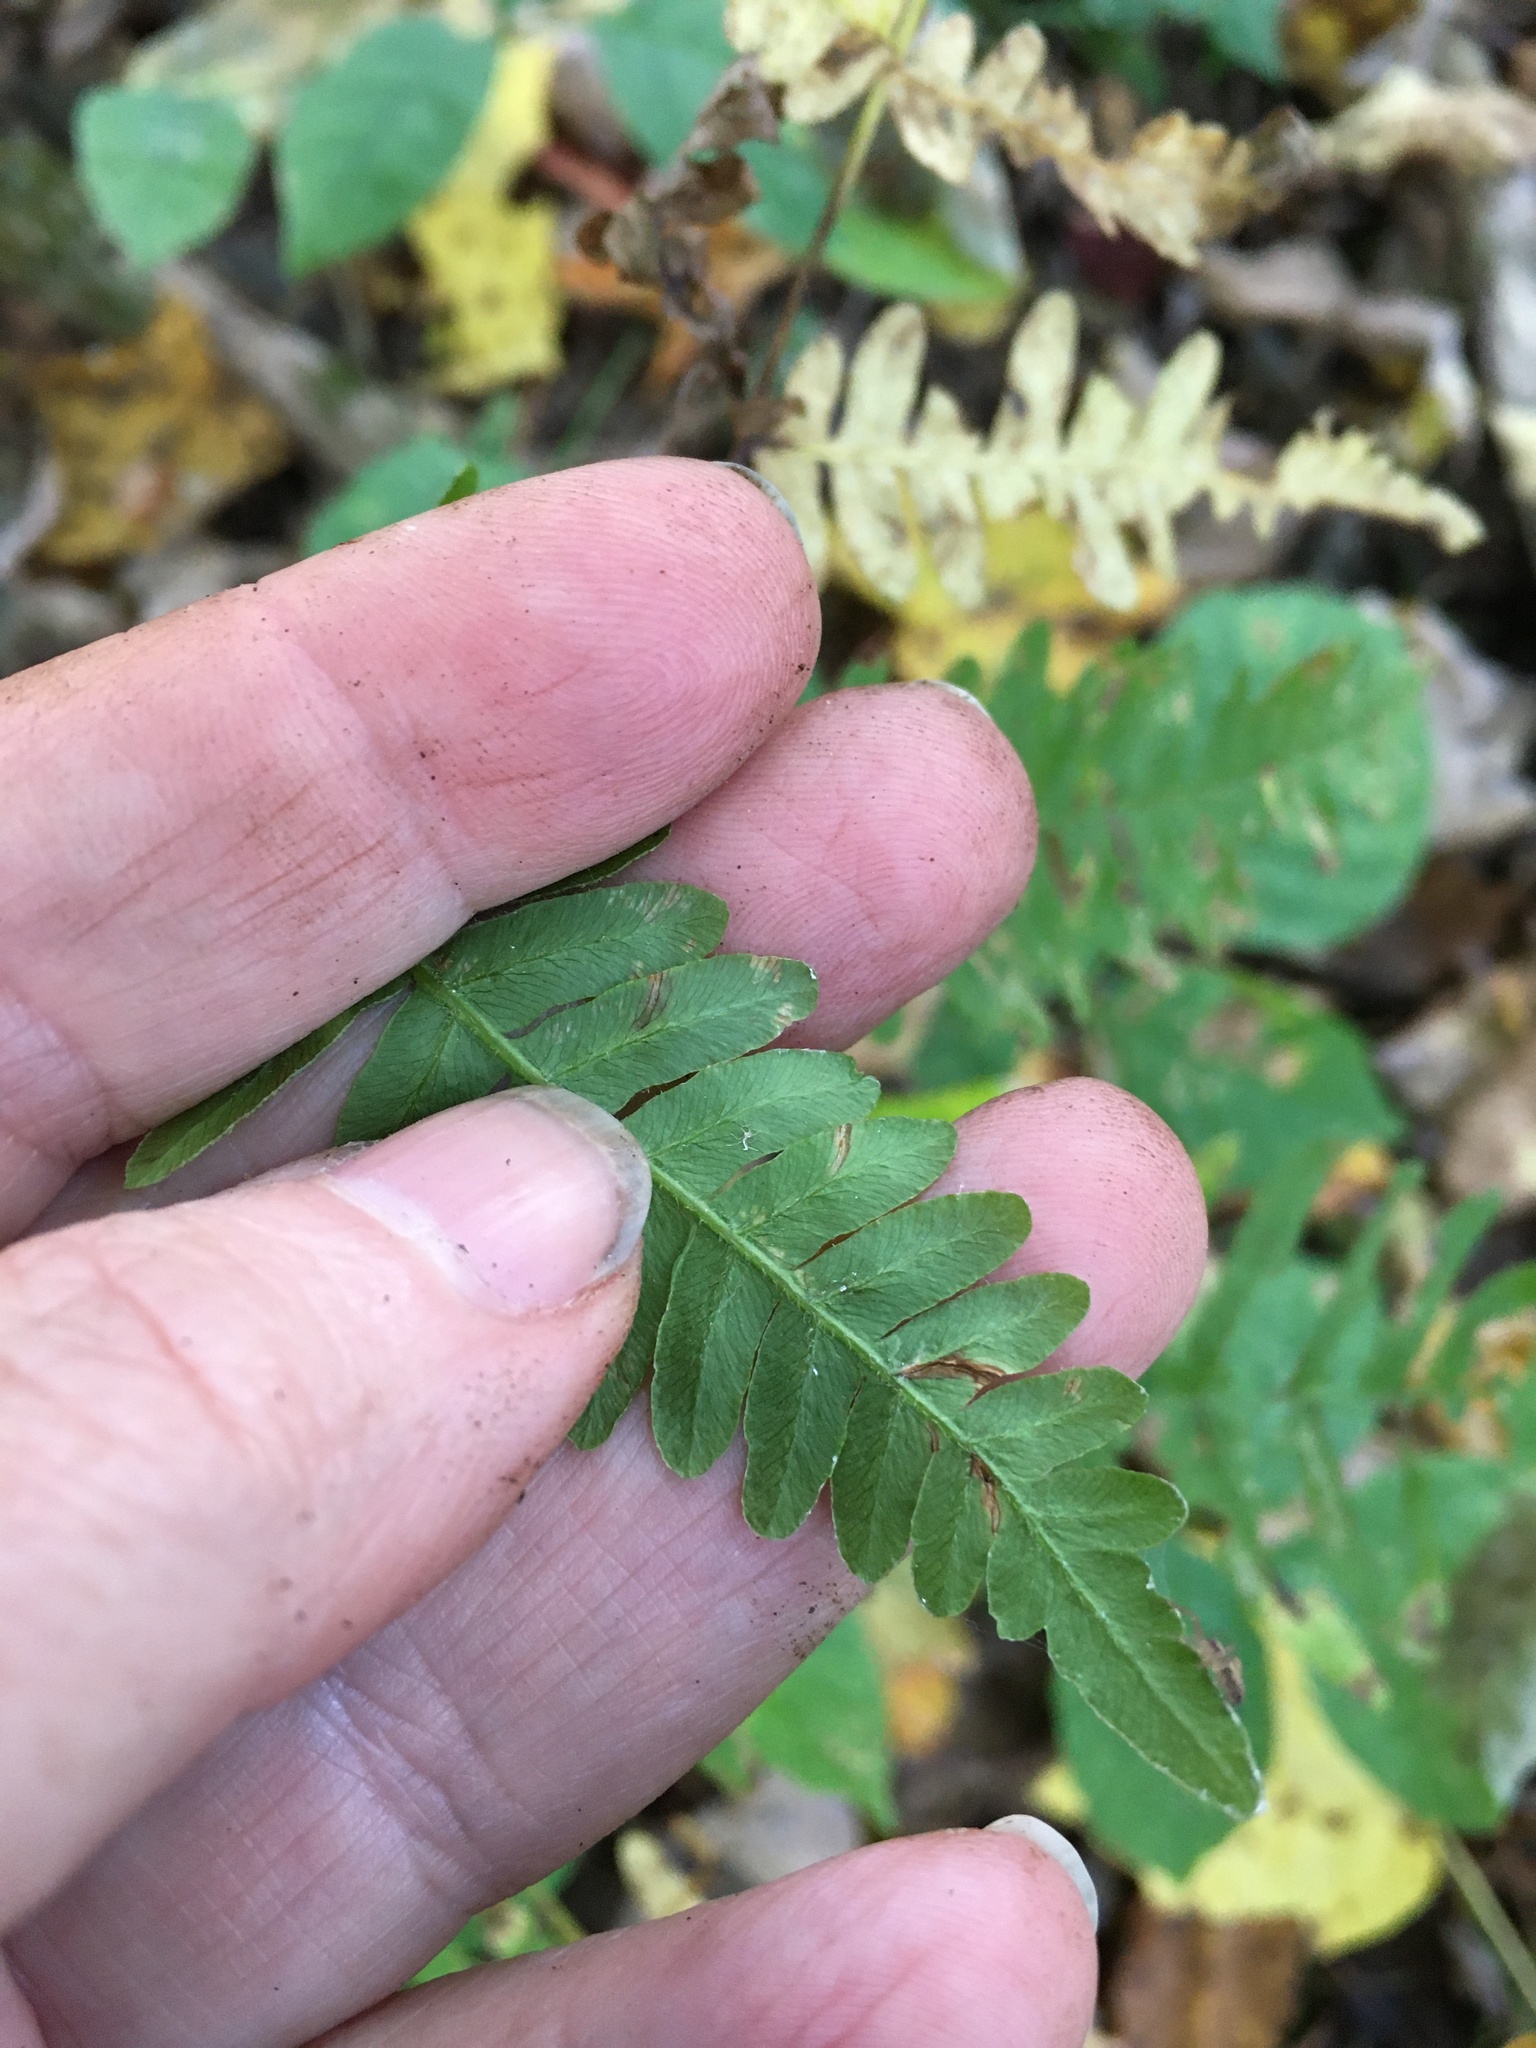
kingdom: Plantae
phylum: Tracheophyta
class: Polypodiopsida
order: Polypodiales
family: Dennstaedtiaceae
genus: Pteridium
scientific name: Pteridium aquilinum
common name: Bracken
